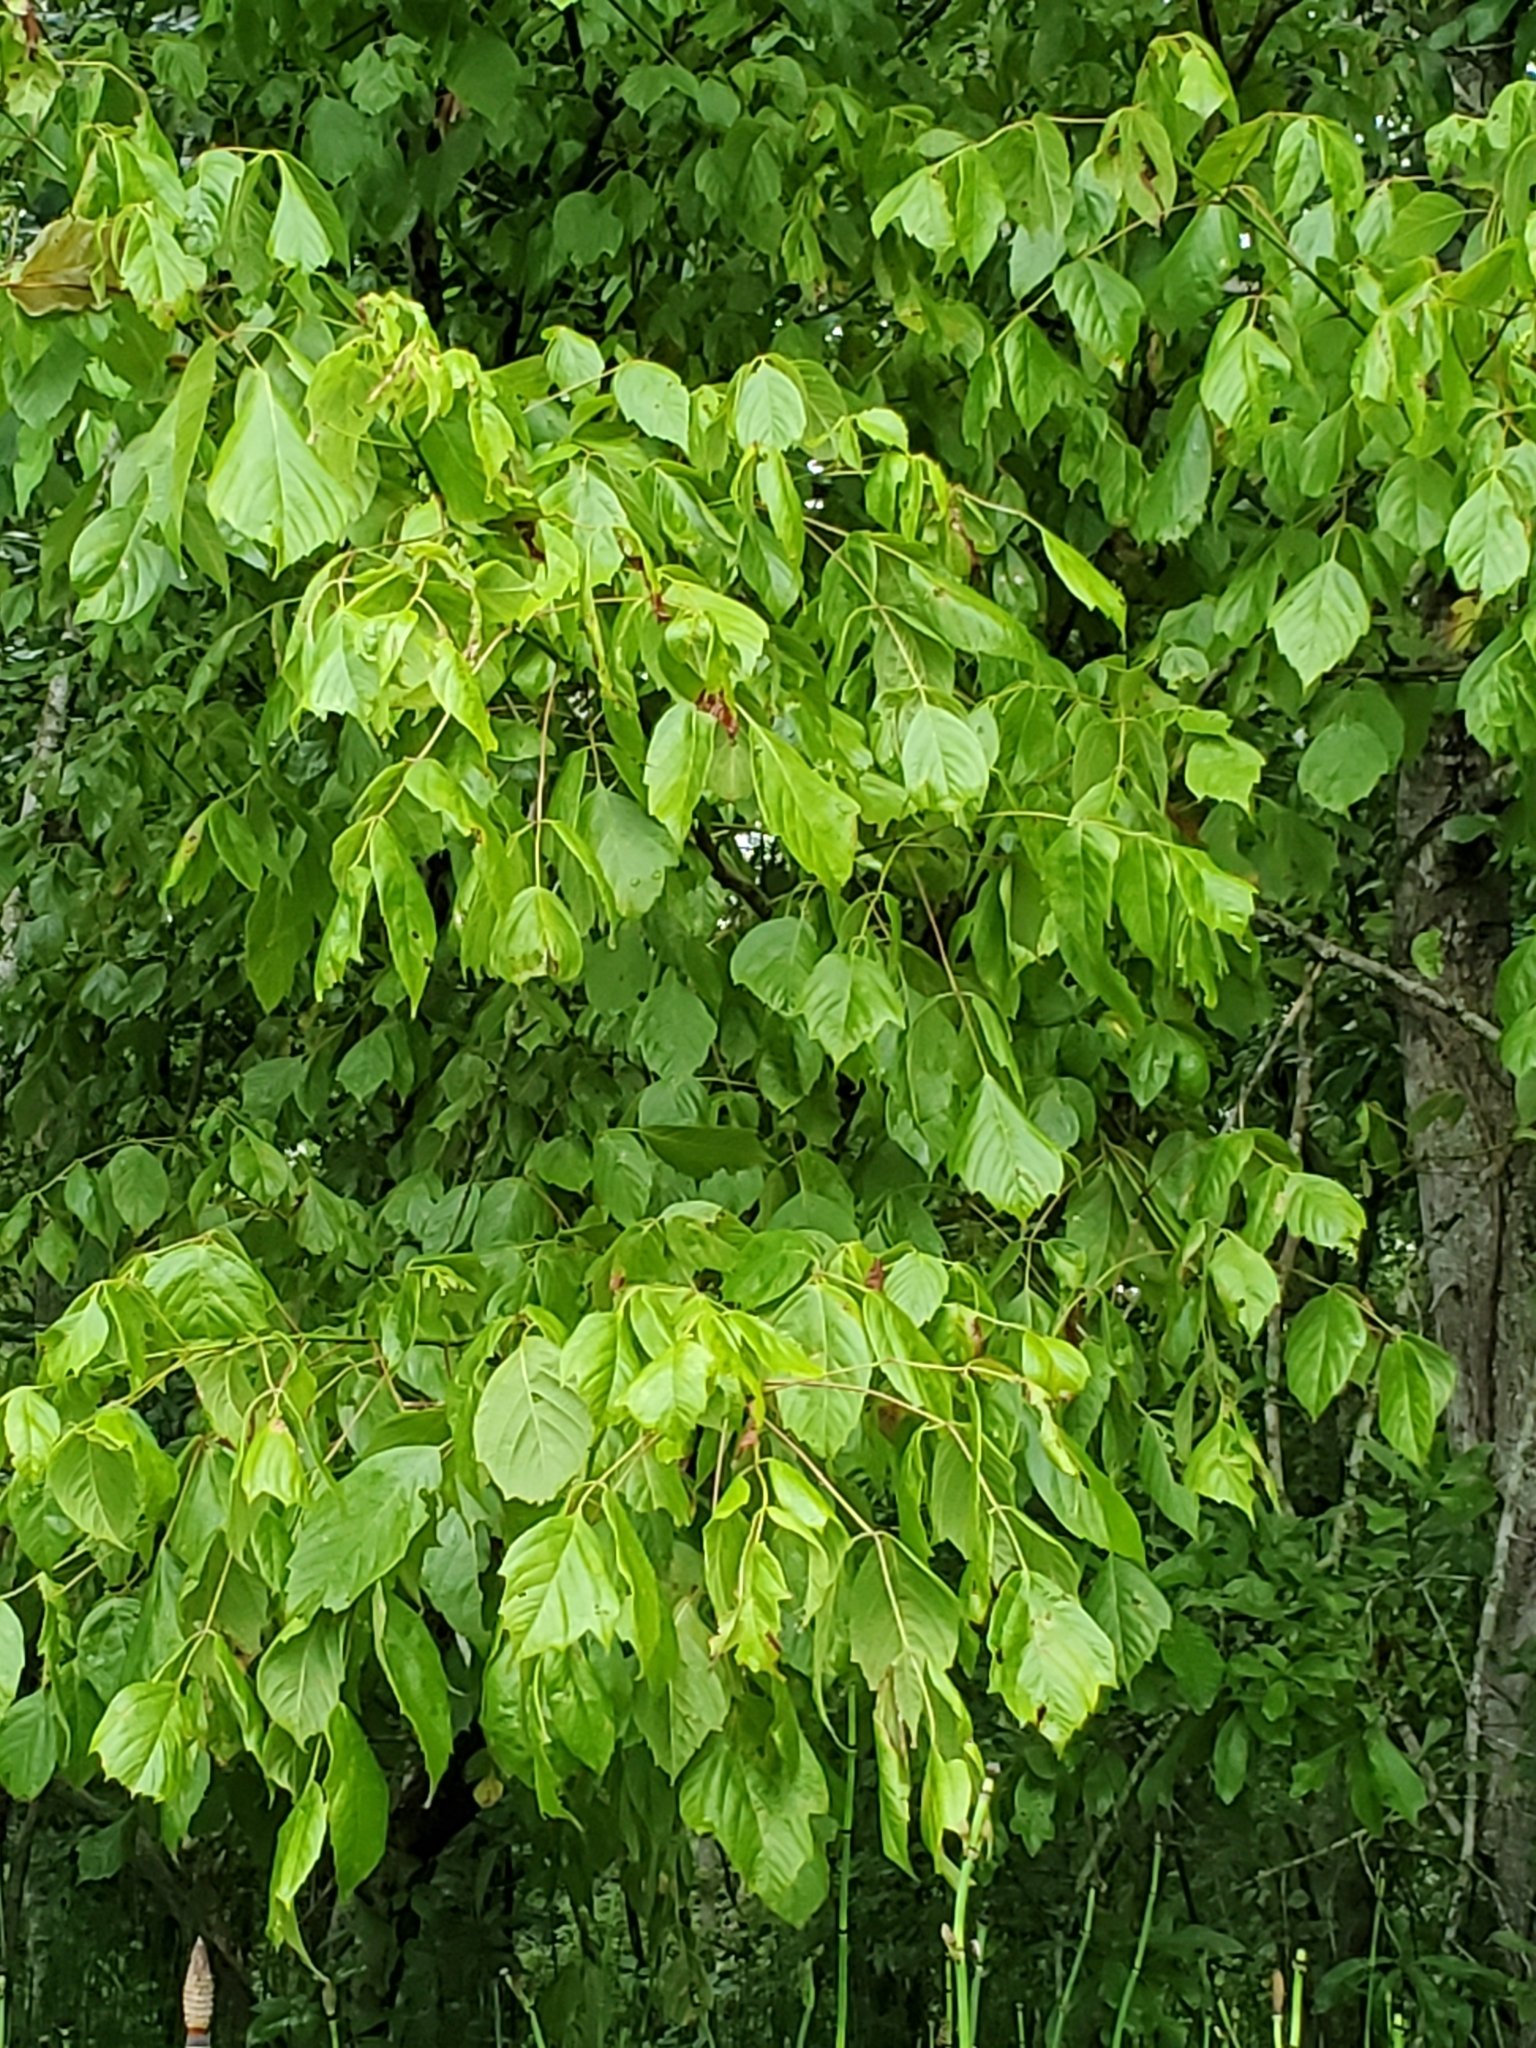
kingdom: Plantae
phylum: Tracheophyta
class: Magnoliopsida
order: Sapindales
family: Sapindaceae
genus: Acer
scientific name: Acer negundo
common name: Ashleaf maple
